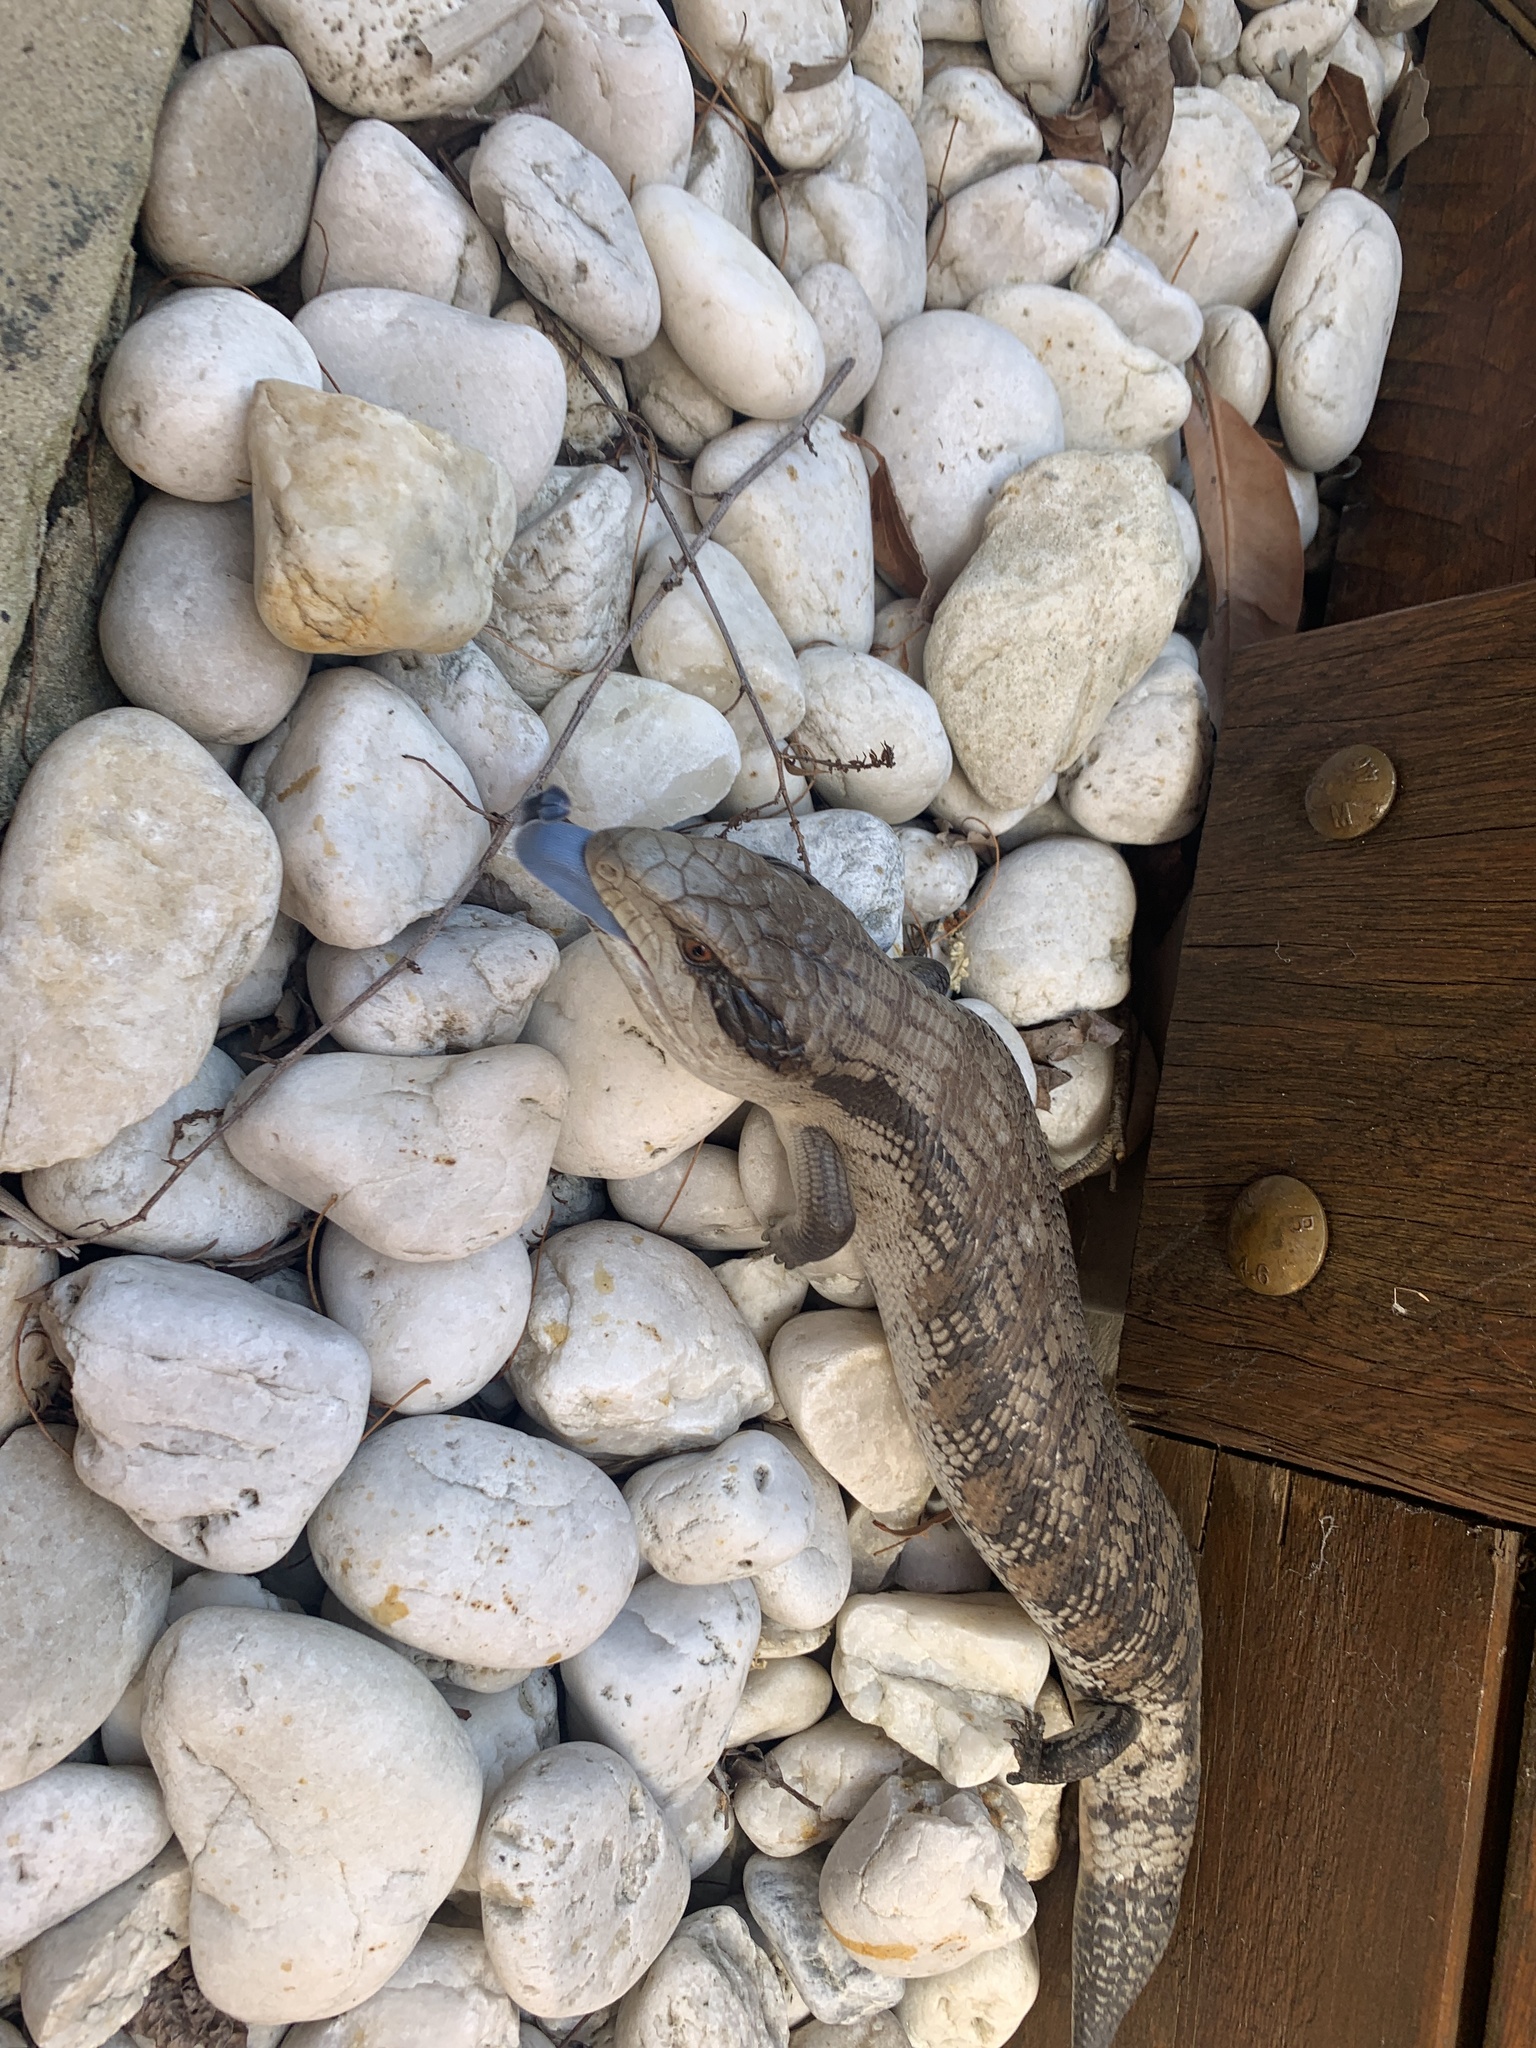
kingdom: Animalia
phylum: Chordata
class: Squamata
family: Scincidae
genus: Tiliqua
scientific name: Tiliqua scincoides
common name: Common bluetongue
